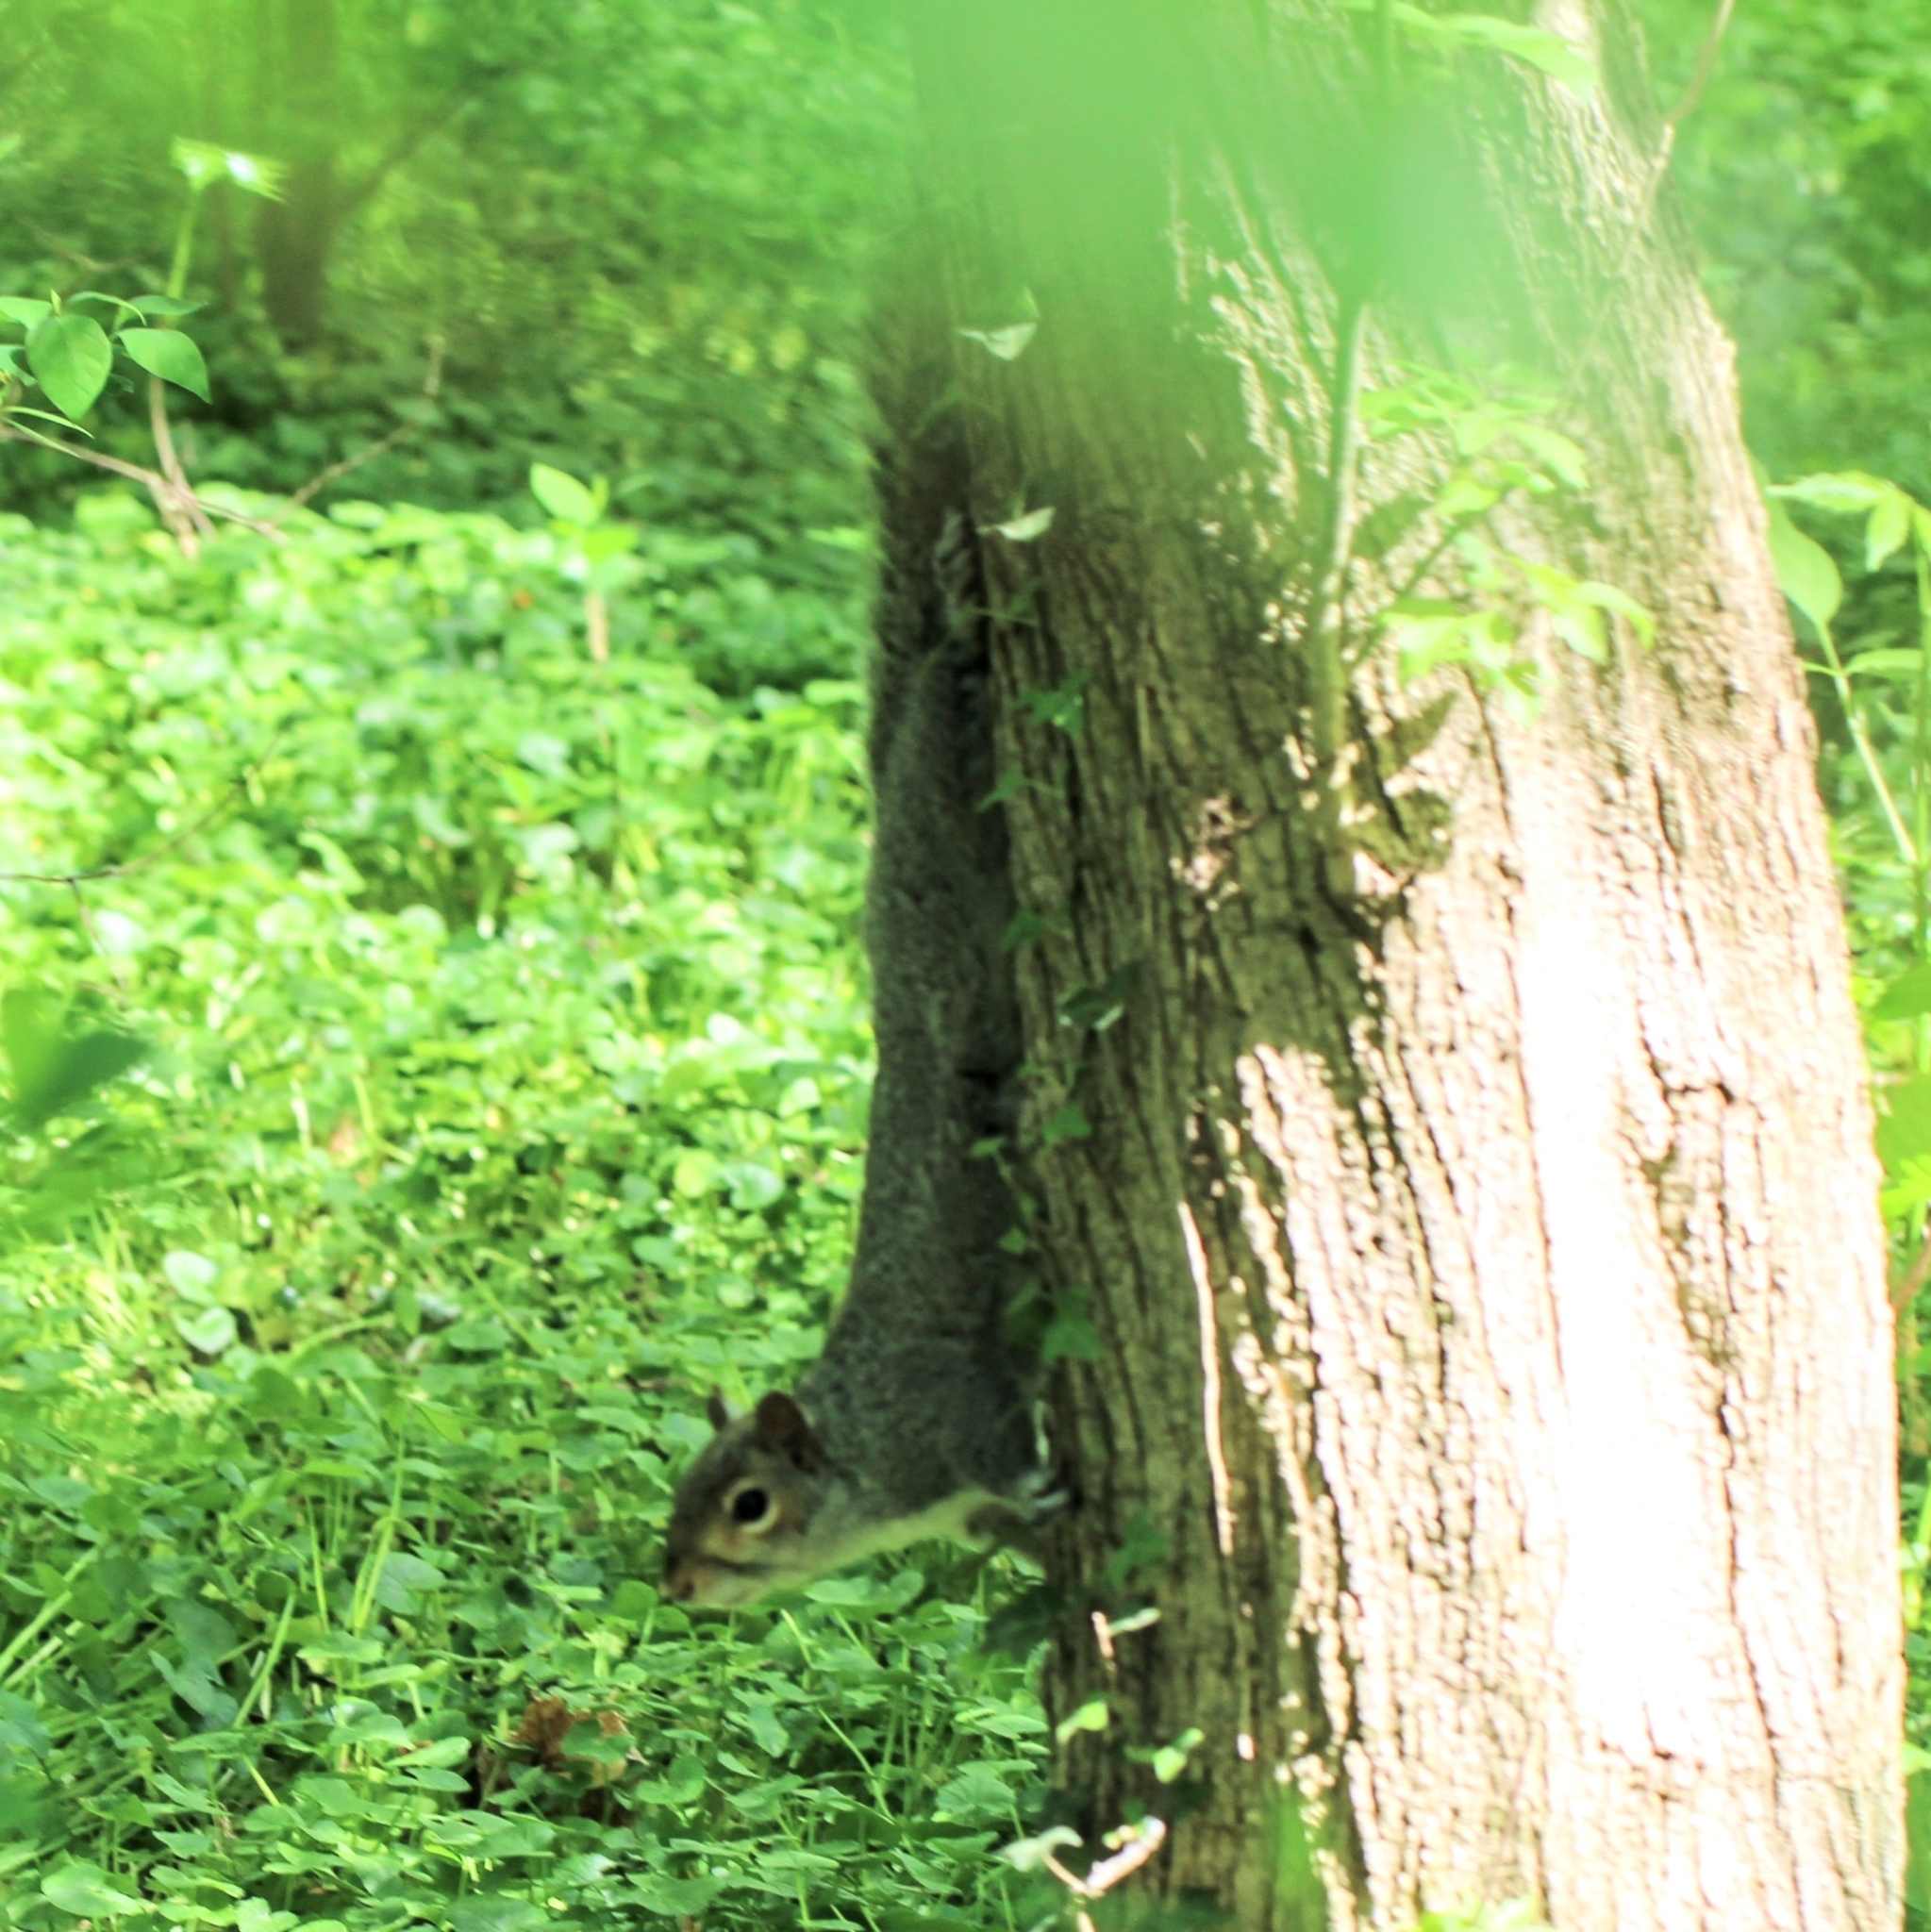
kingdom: Animalia
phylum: Chordata
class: Mammalia
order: Rodentia
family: Sciuridae
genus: Sciurus
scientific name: Sciurus carolinensis
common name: Eastern gray squirrel
